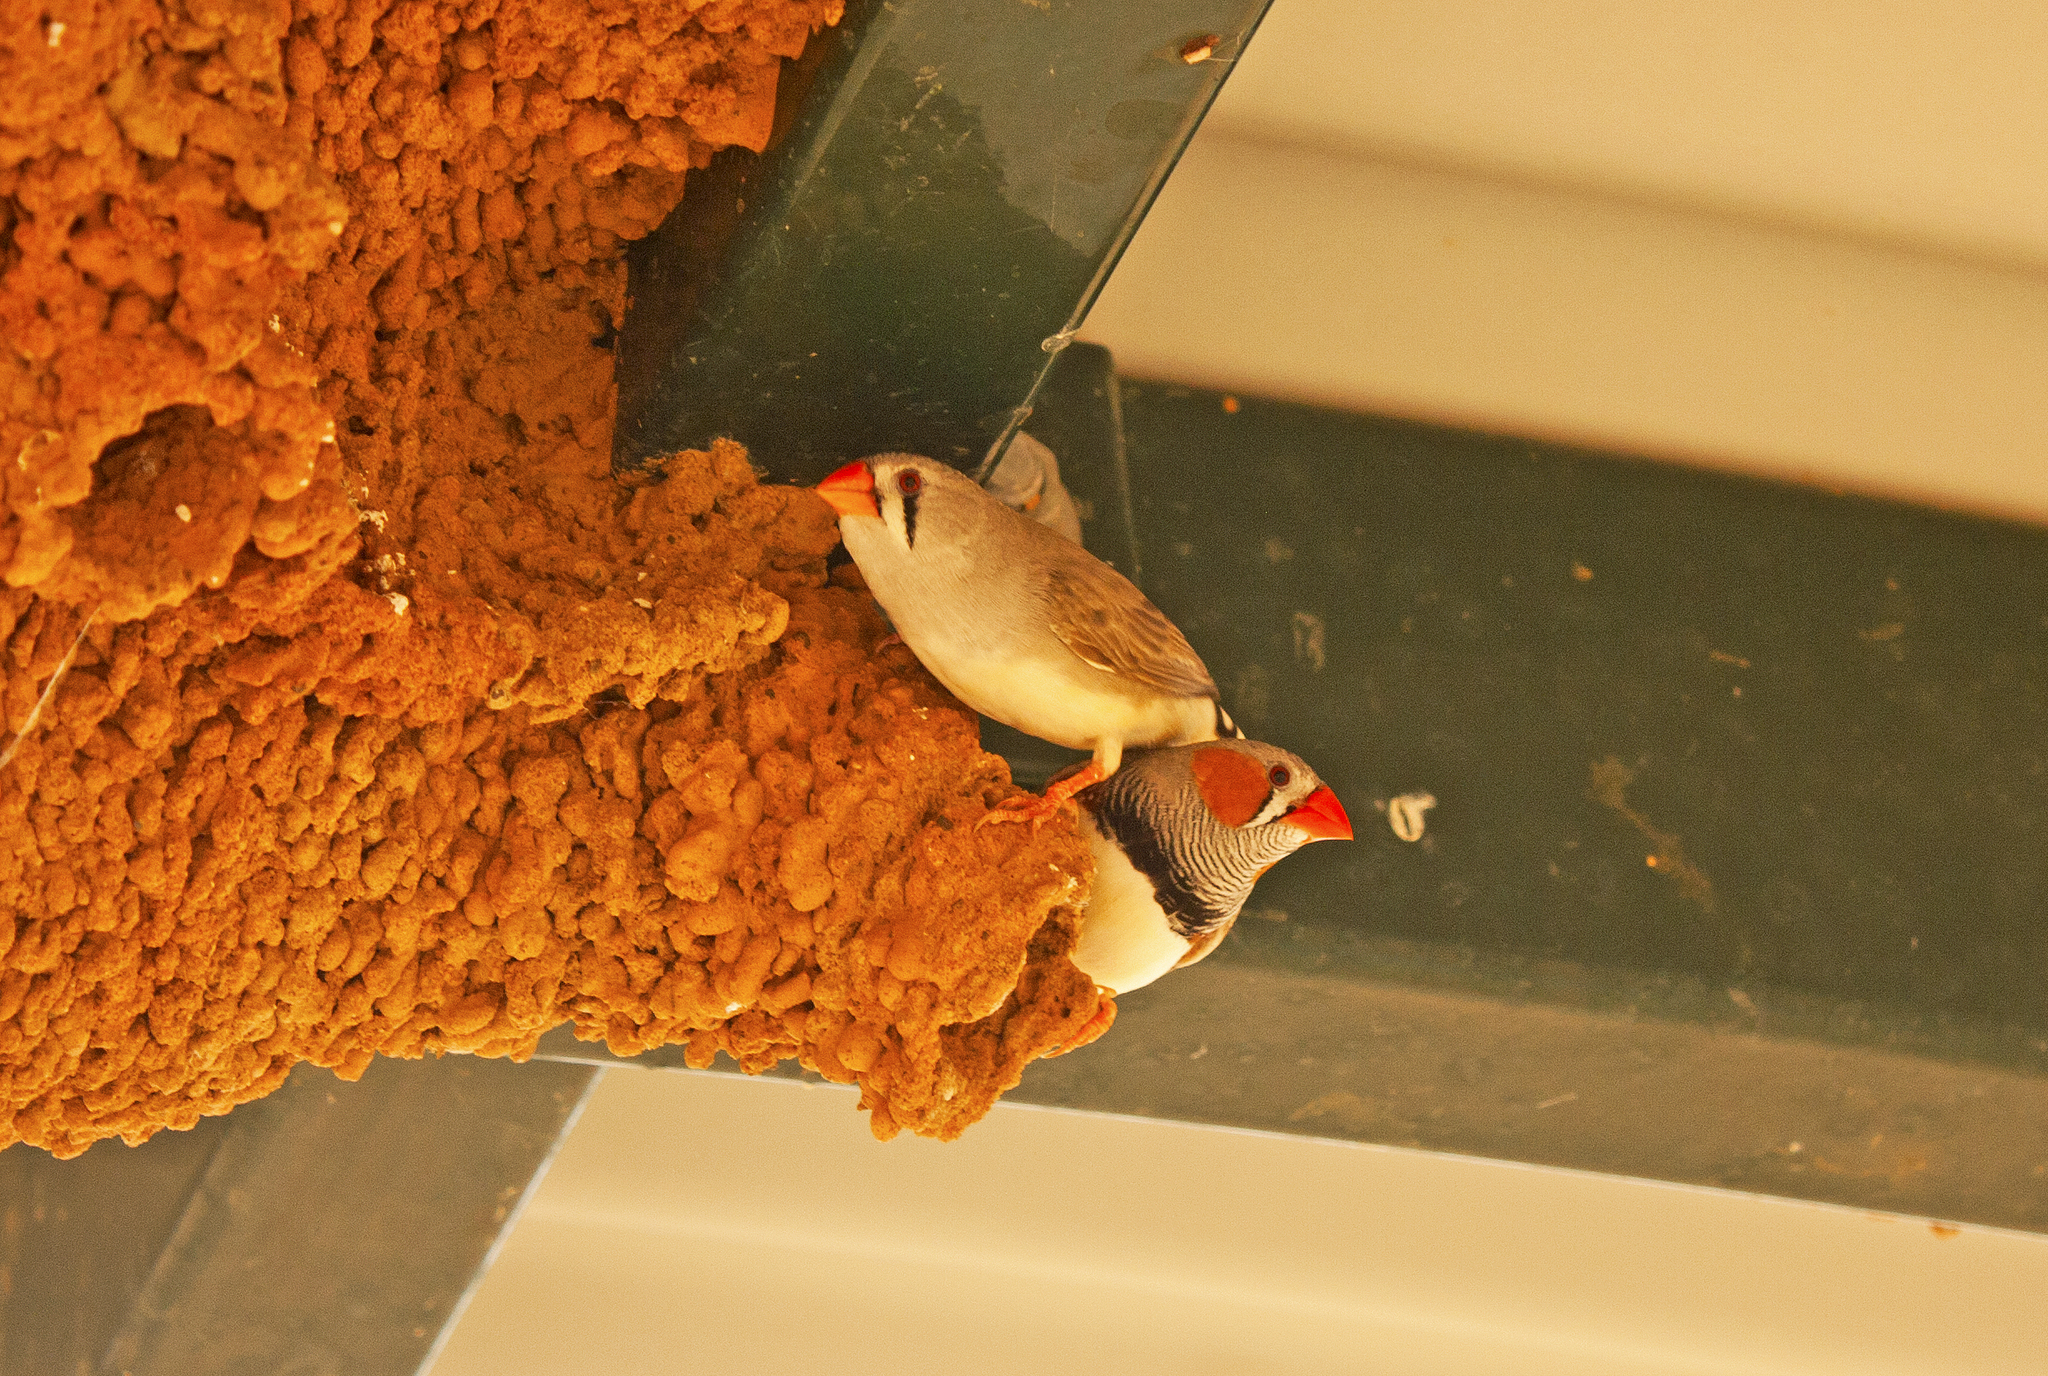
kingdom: Animalia
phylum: Chordata
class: Aves
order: Passeriformes
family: Estrildidae
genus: Taeniopygia
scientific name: Taeniopygia guttata
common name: Zebra finch
